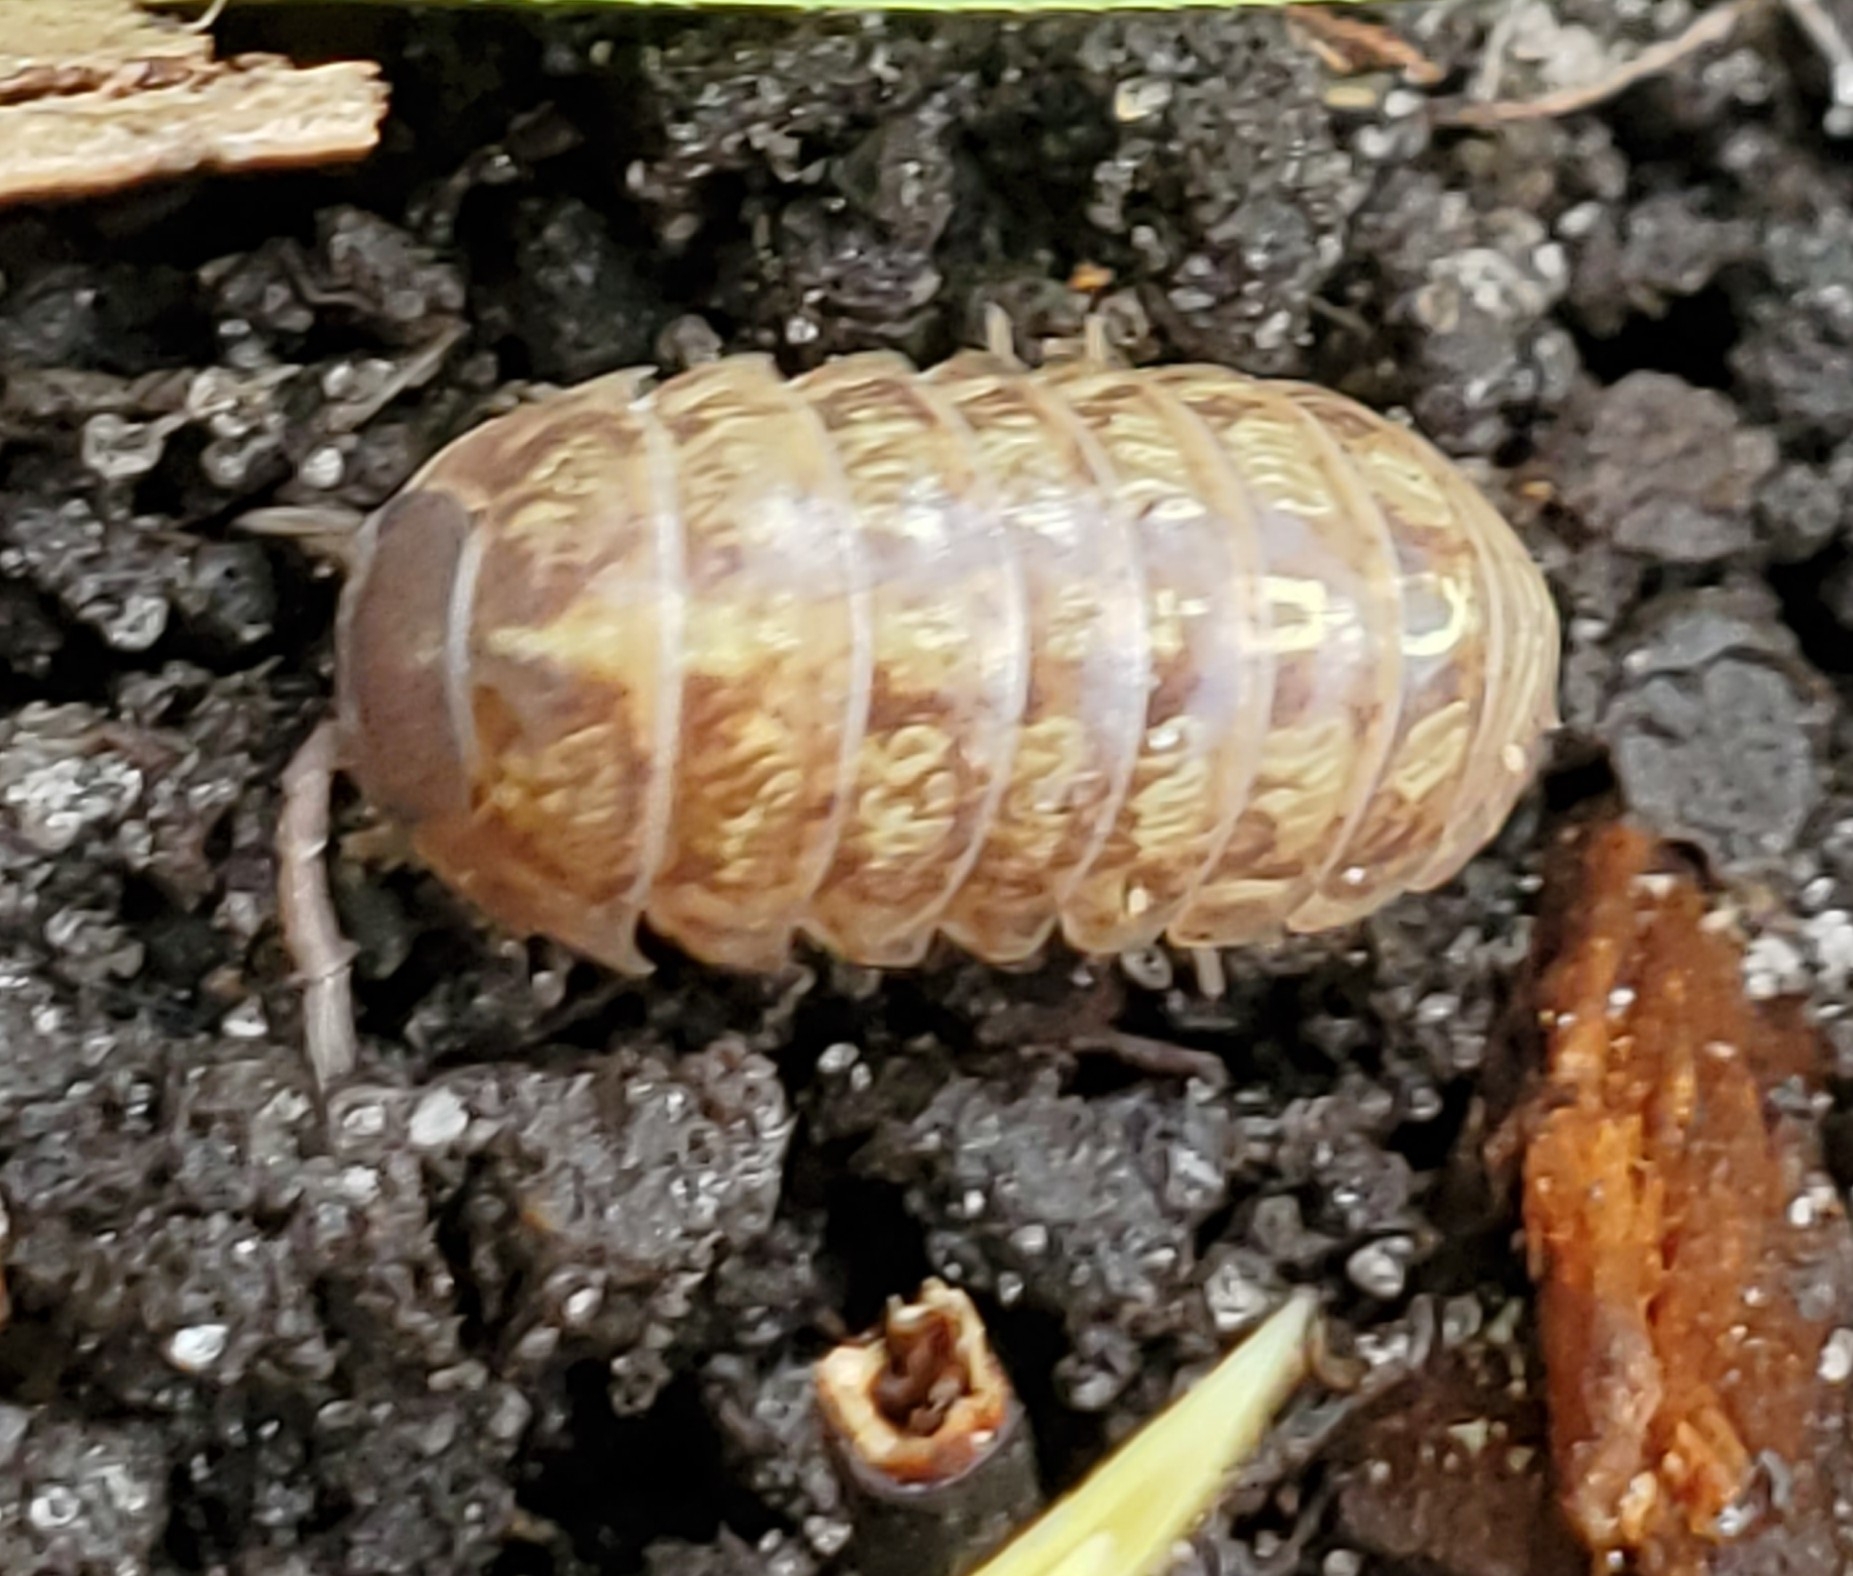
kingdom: Animalia
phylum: Arthropoda
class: Malacostraca
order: Isopoda
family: Armadillidiidae
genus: Armadillidium
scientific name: Armadillidium vulgare
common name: Common pill woodlouse
